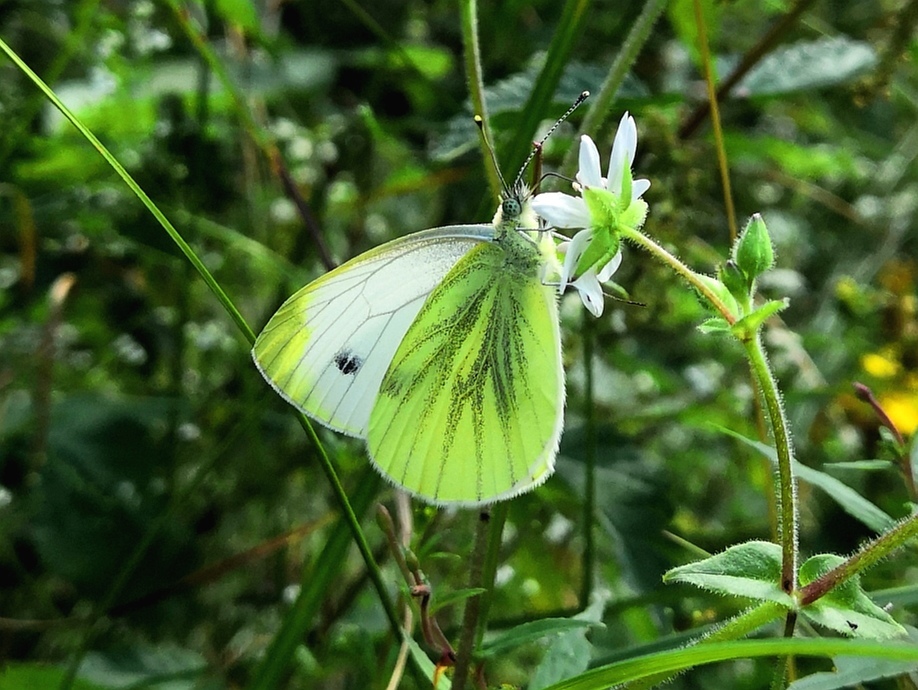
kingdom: Animalia
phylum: Arthropoda
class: Insecta
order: Lepidoptera
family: Pieridae
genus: Pieris
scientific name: Pieris napi
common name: Green-veined white
